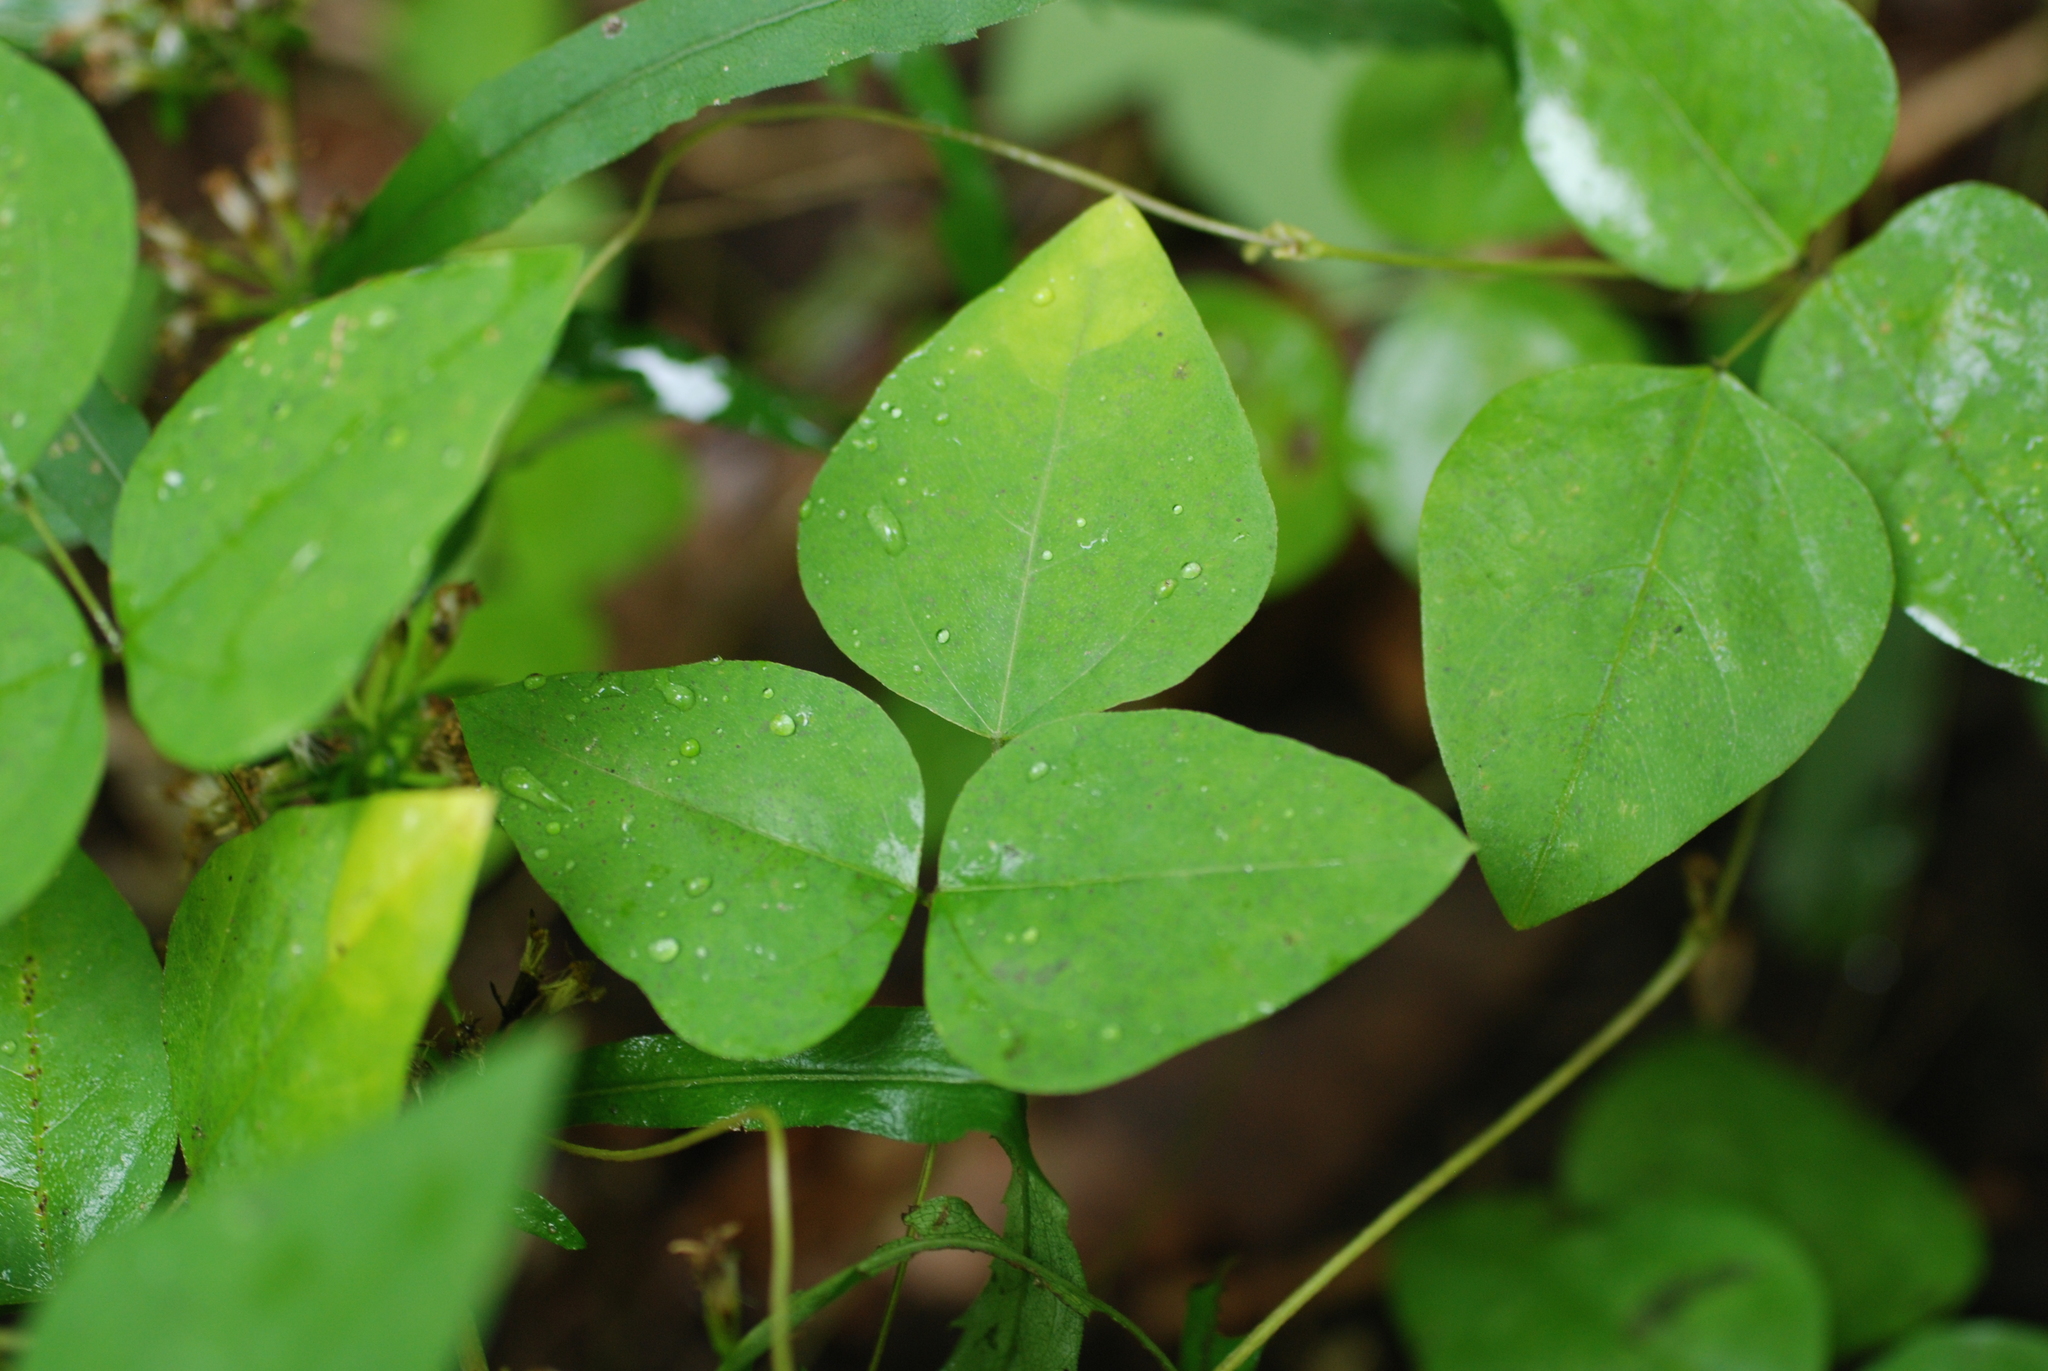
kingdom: Plantae
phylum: Tracheophyta
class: Magnoliopsida
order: Fabales
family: Fabaceae
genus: Amphicarpaea
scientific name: Amphicarpaea bracteata
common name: American hog peanut
